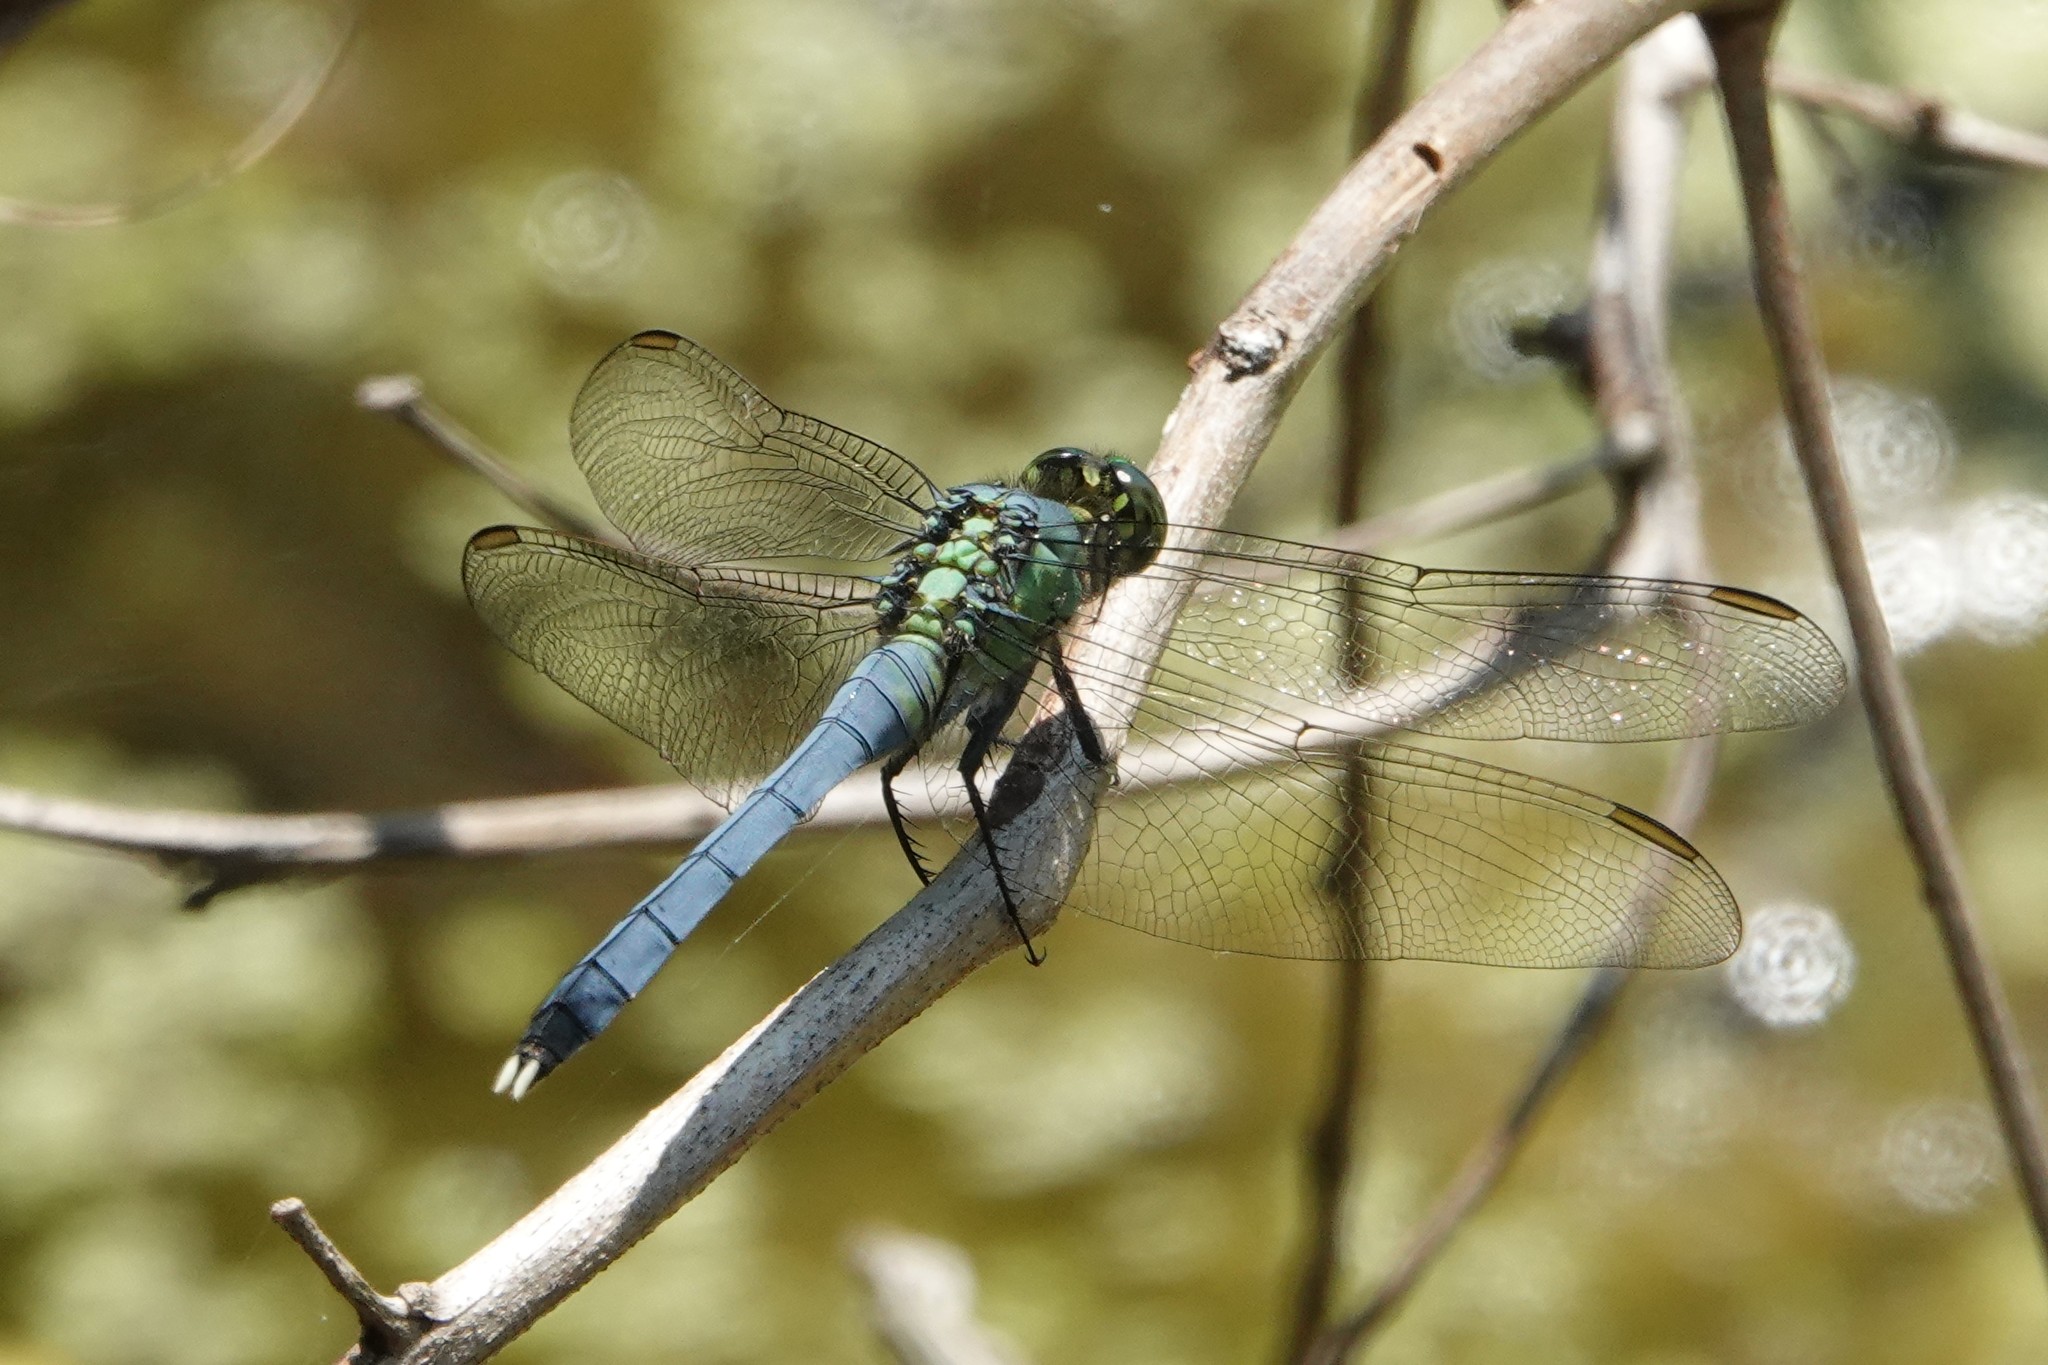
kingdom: Animalia
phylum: Arthropoda
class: Insecta
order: Odonata
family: Libellulidae
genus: Erythemis
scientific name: Erythemis simplicicollis
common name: Eastern pondhawk
